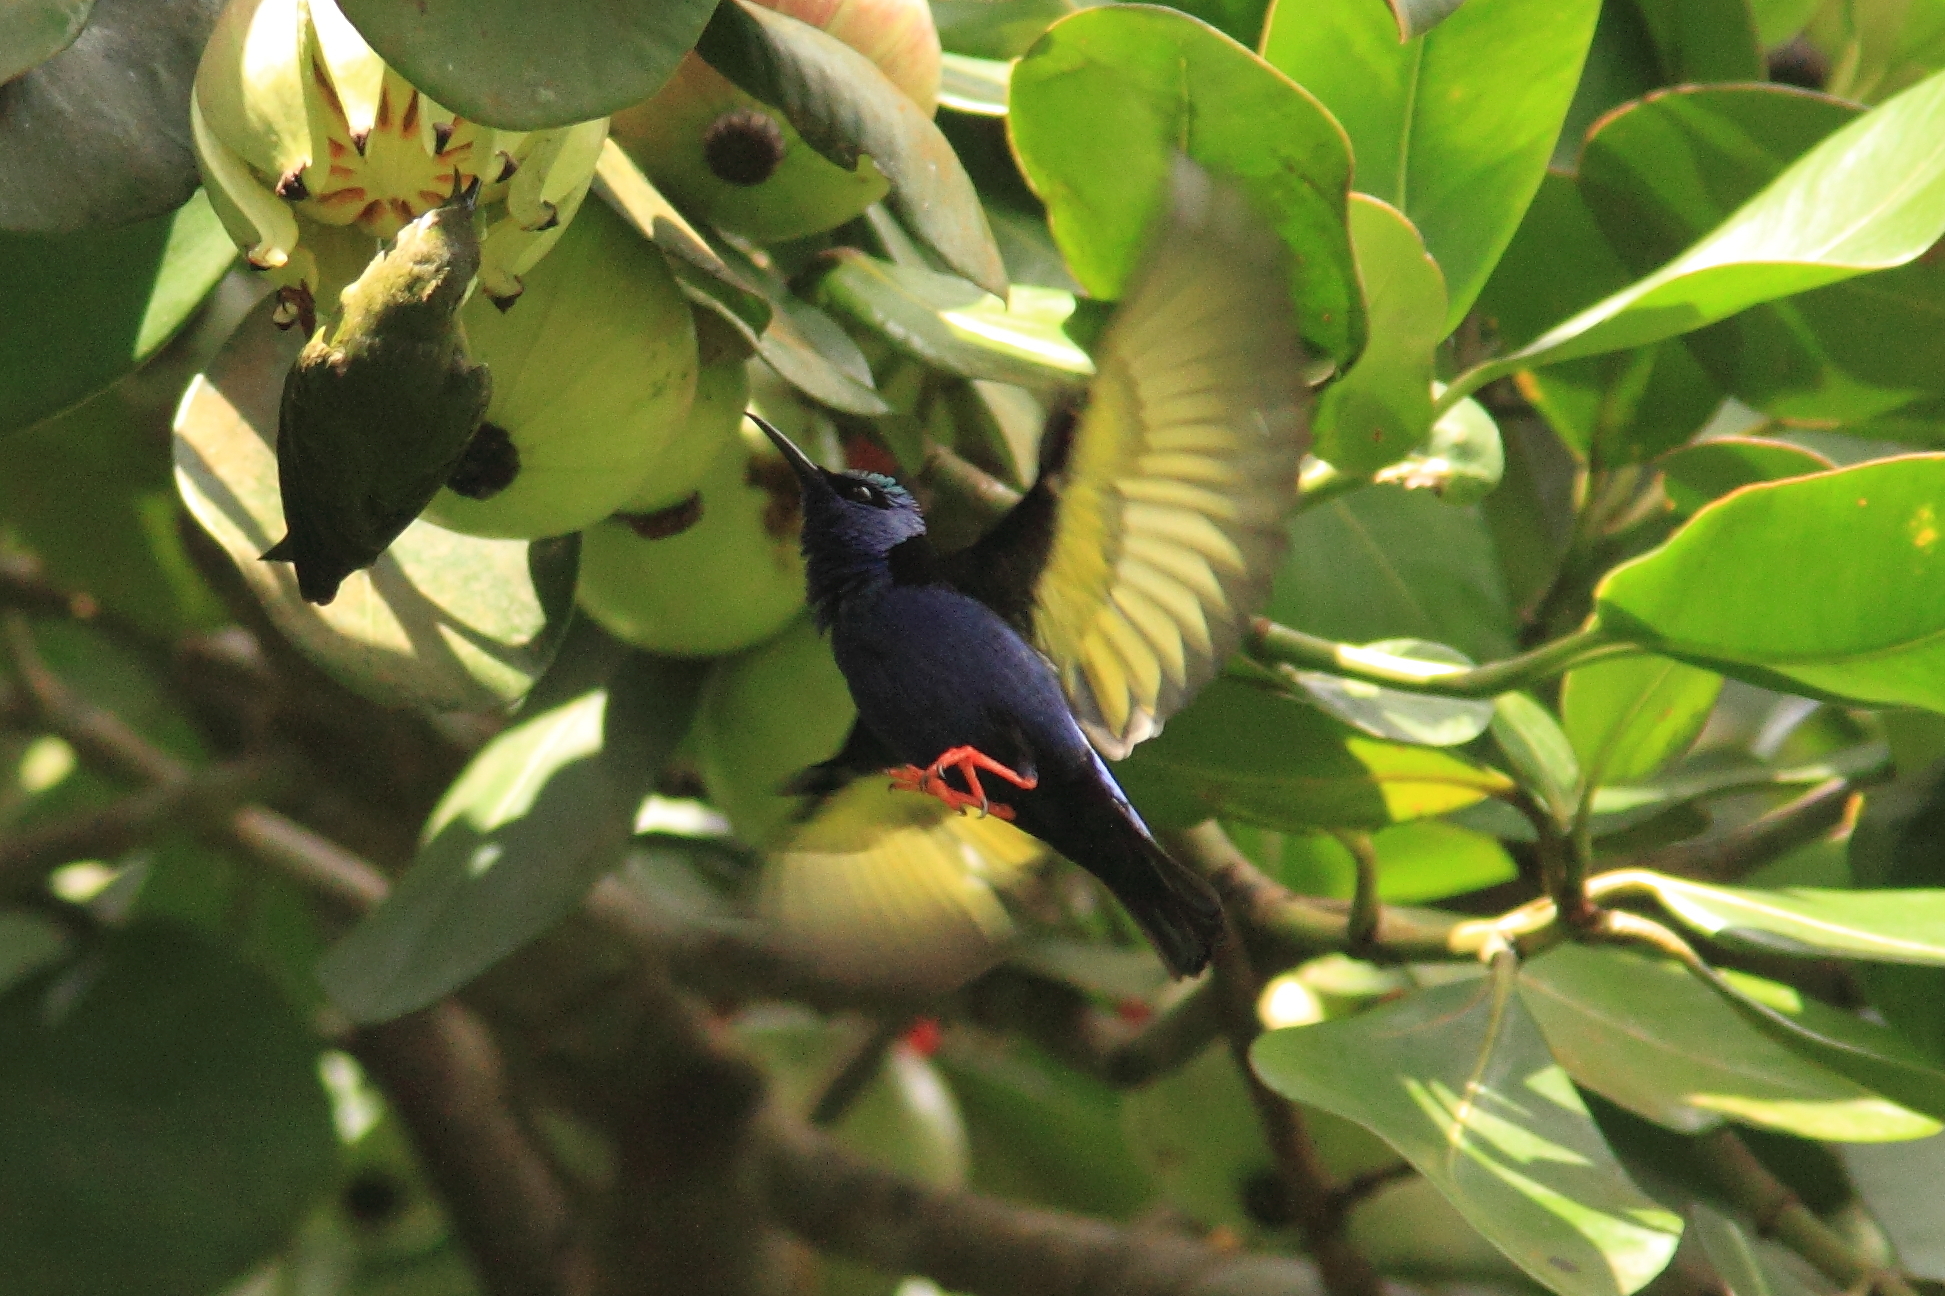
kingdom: Animalia
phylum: Chordata
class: Aves
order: Passeriformes
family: Thraupidae
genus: Cyanerpes
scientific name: Cyanerpes cyaneus
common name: Red-legged honeycreeper
